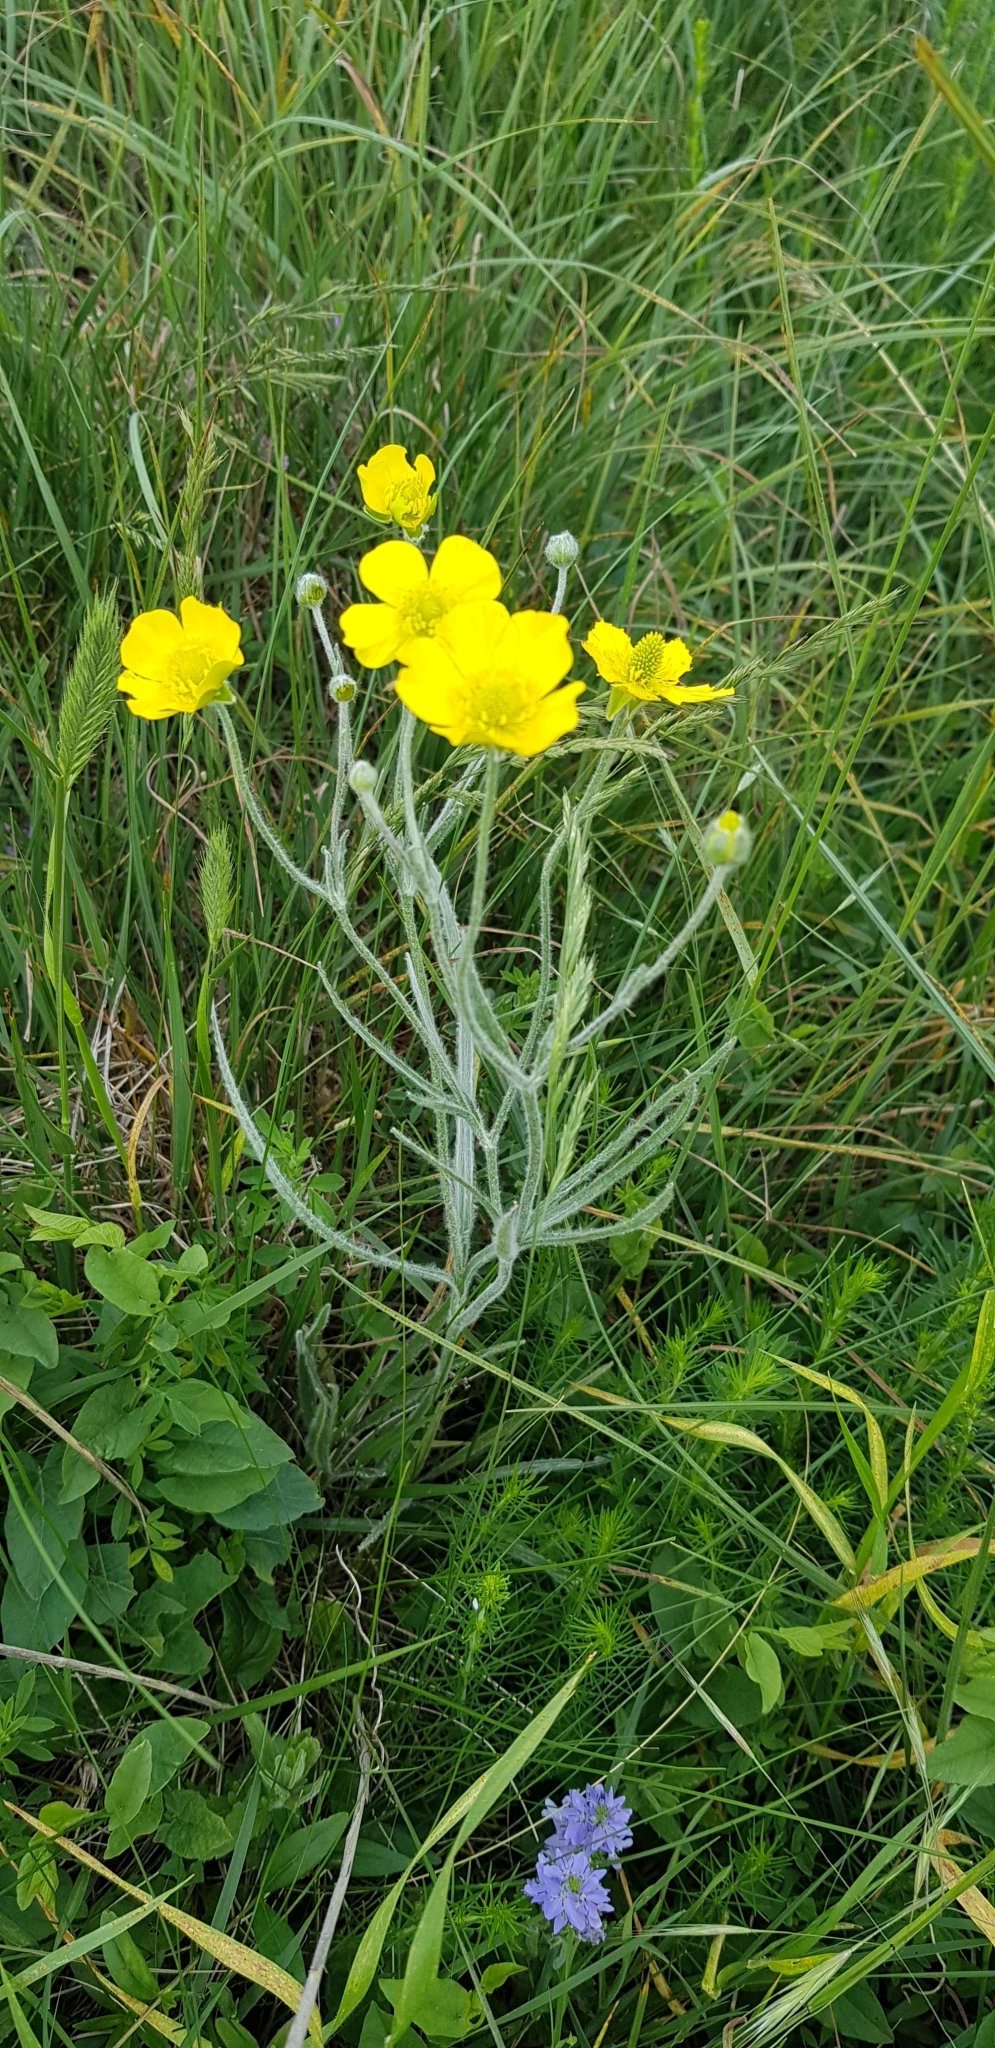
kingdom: Plantae
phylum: Tracheophyta
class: Magnoliopsida
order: Ranunculales
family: Ranunculaceae
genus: Ranunculus
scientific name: Ranunculus illyricus
